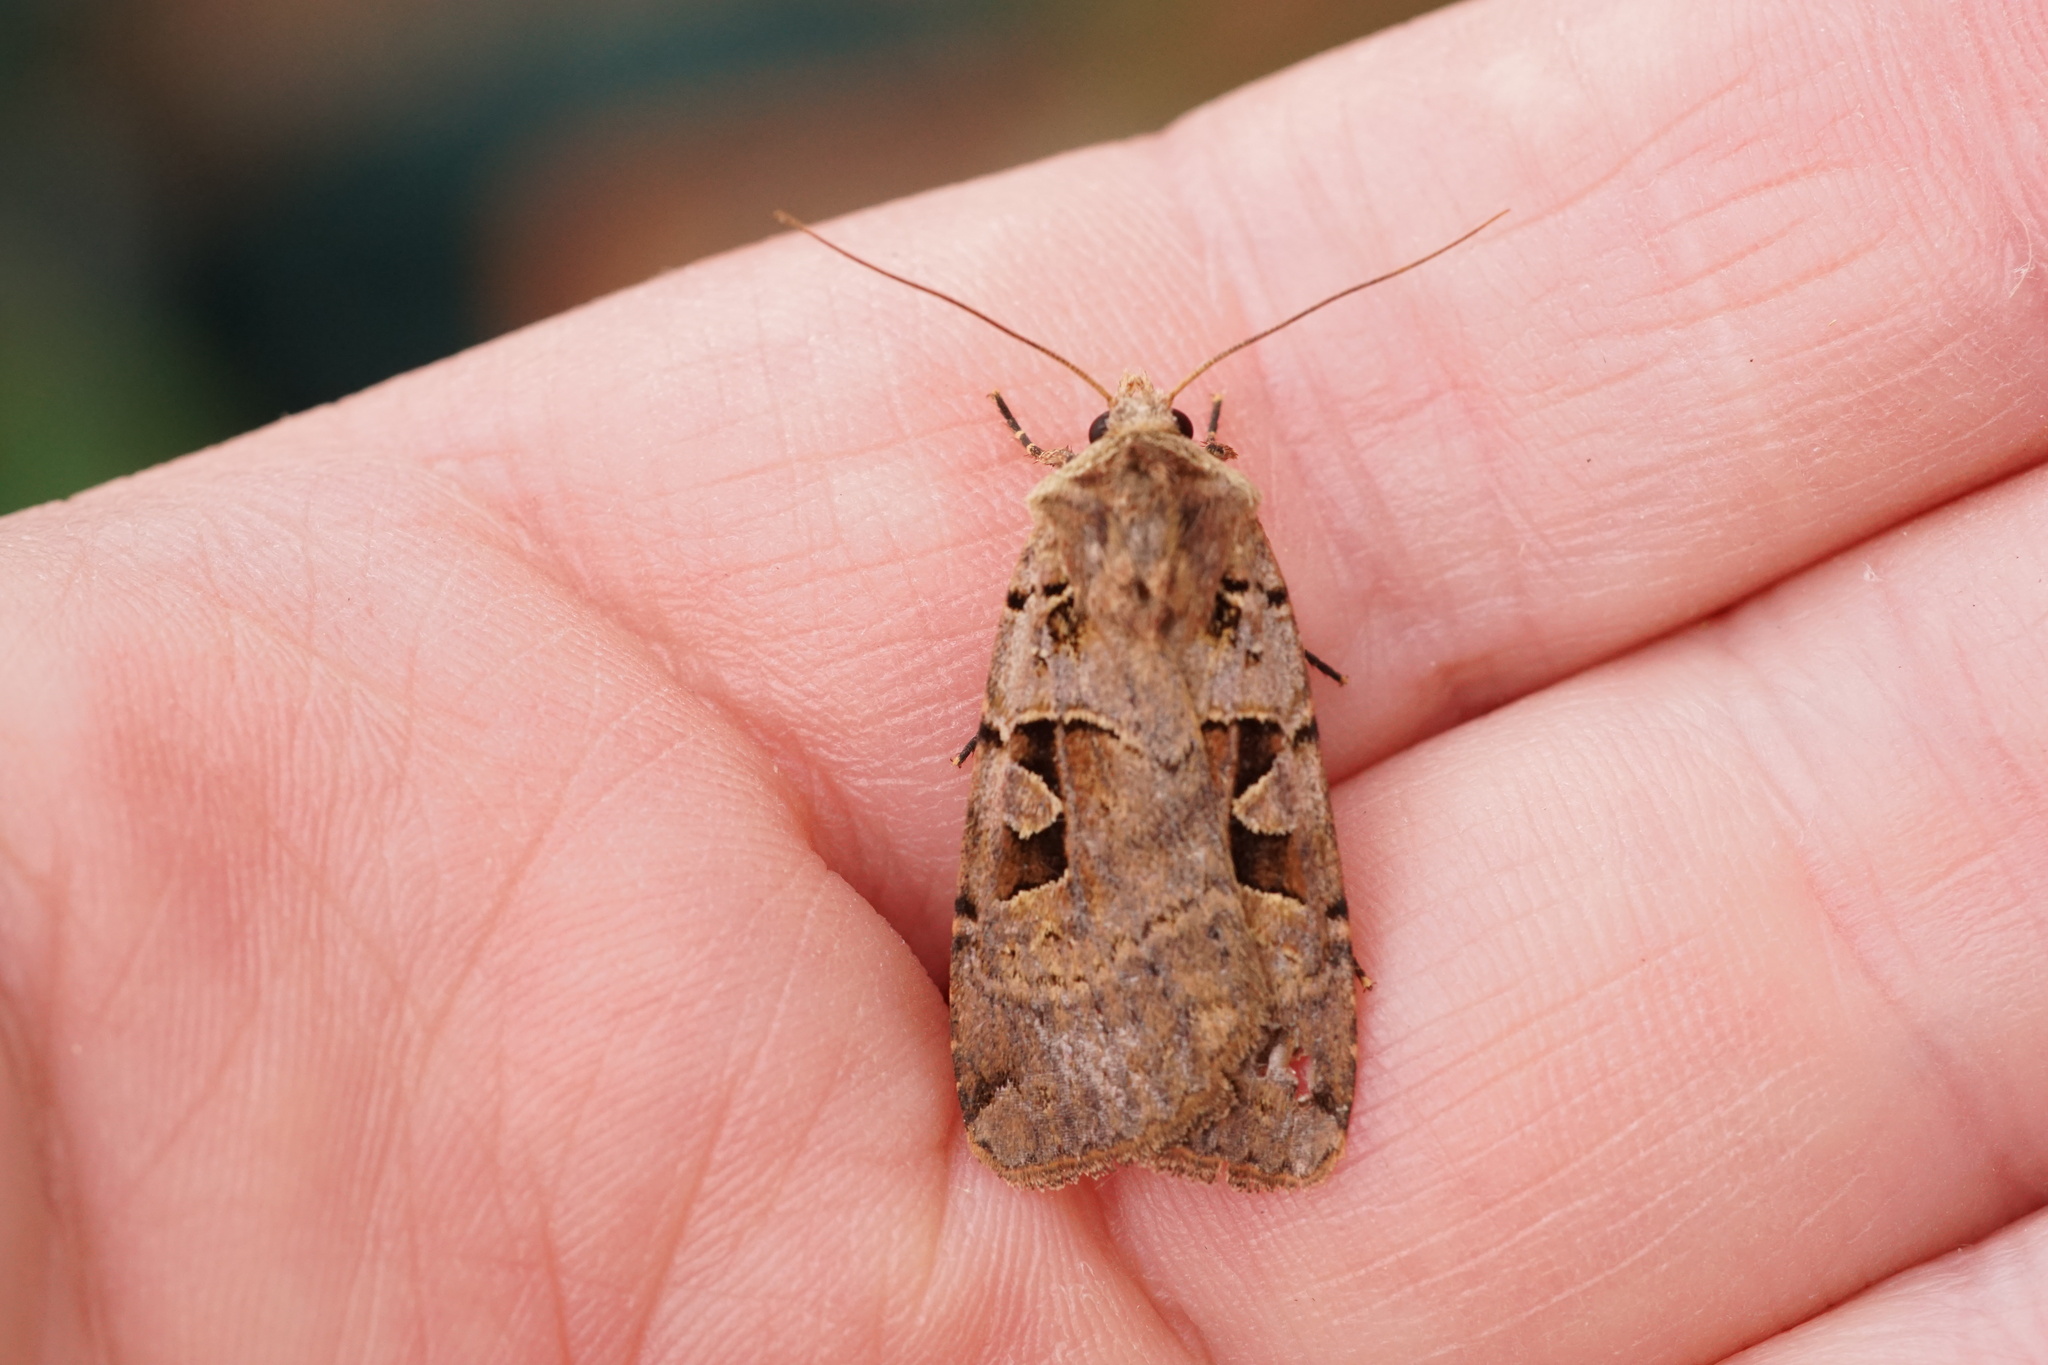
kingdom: Animalia
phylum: Arthropoda
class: Insecta
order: Lepidoptera
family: Noctuidae
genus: Xestia
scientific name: Xestia triangulum
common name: Double square-spot
